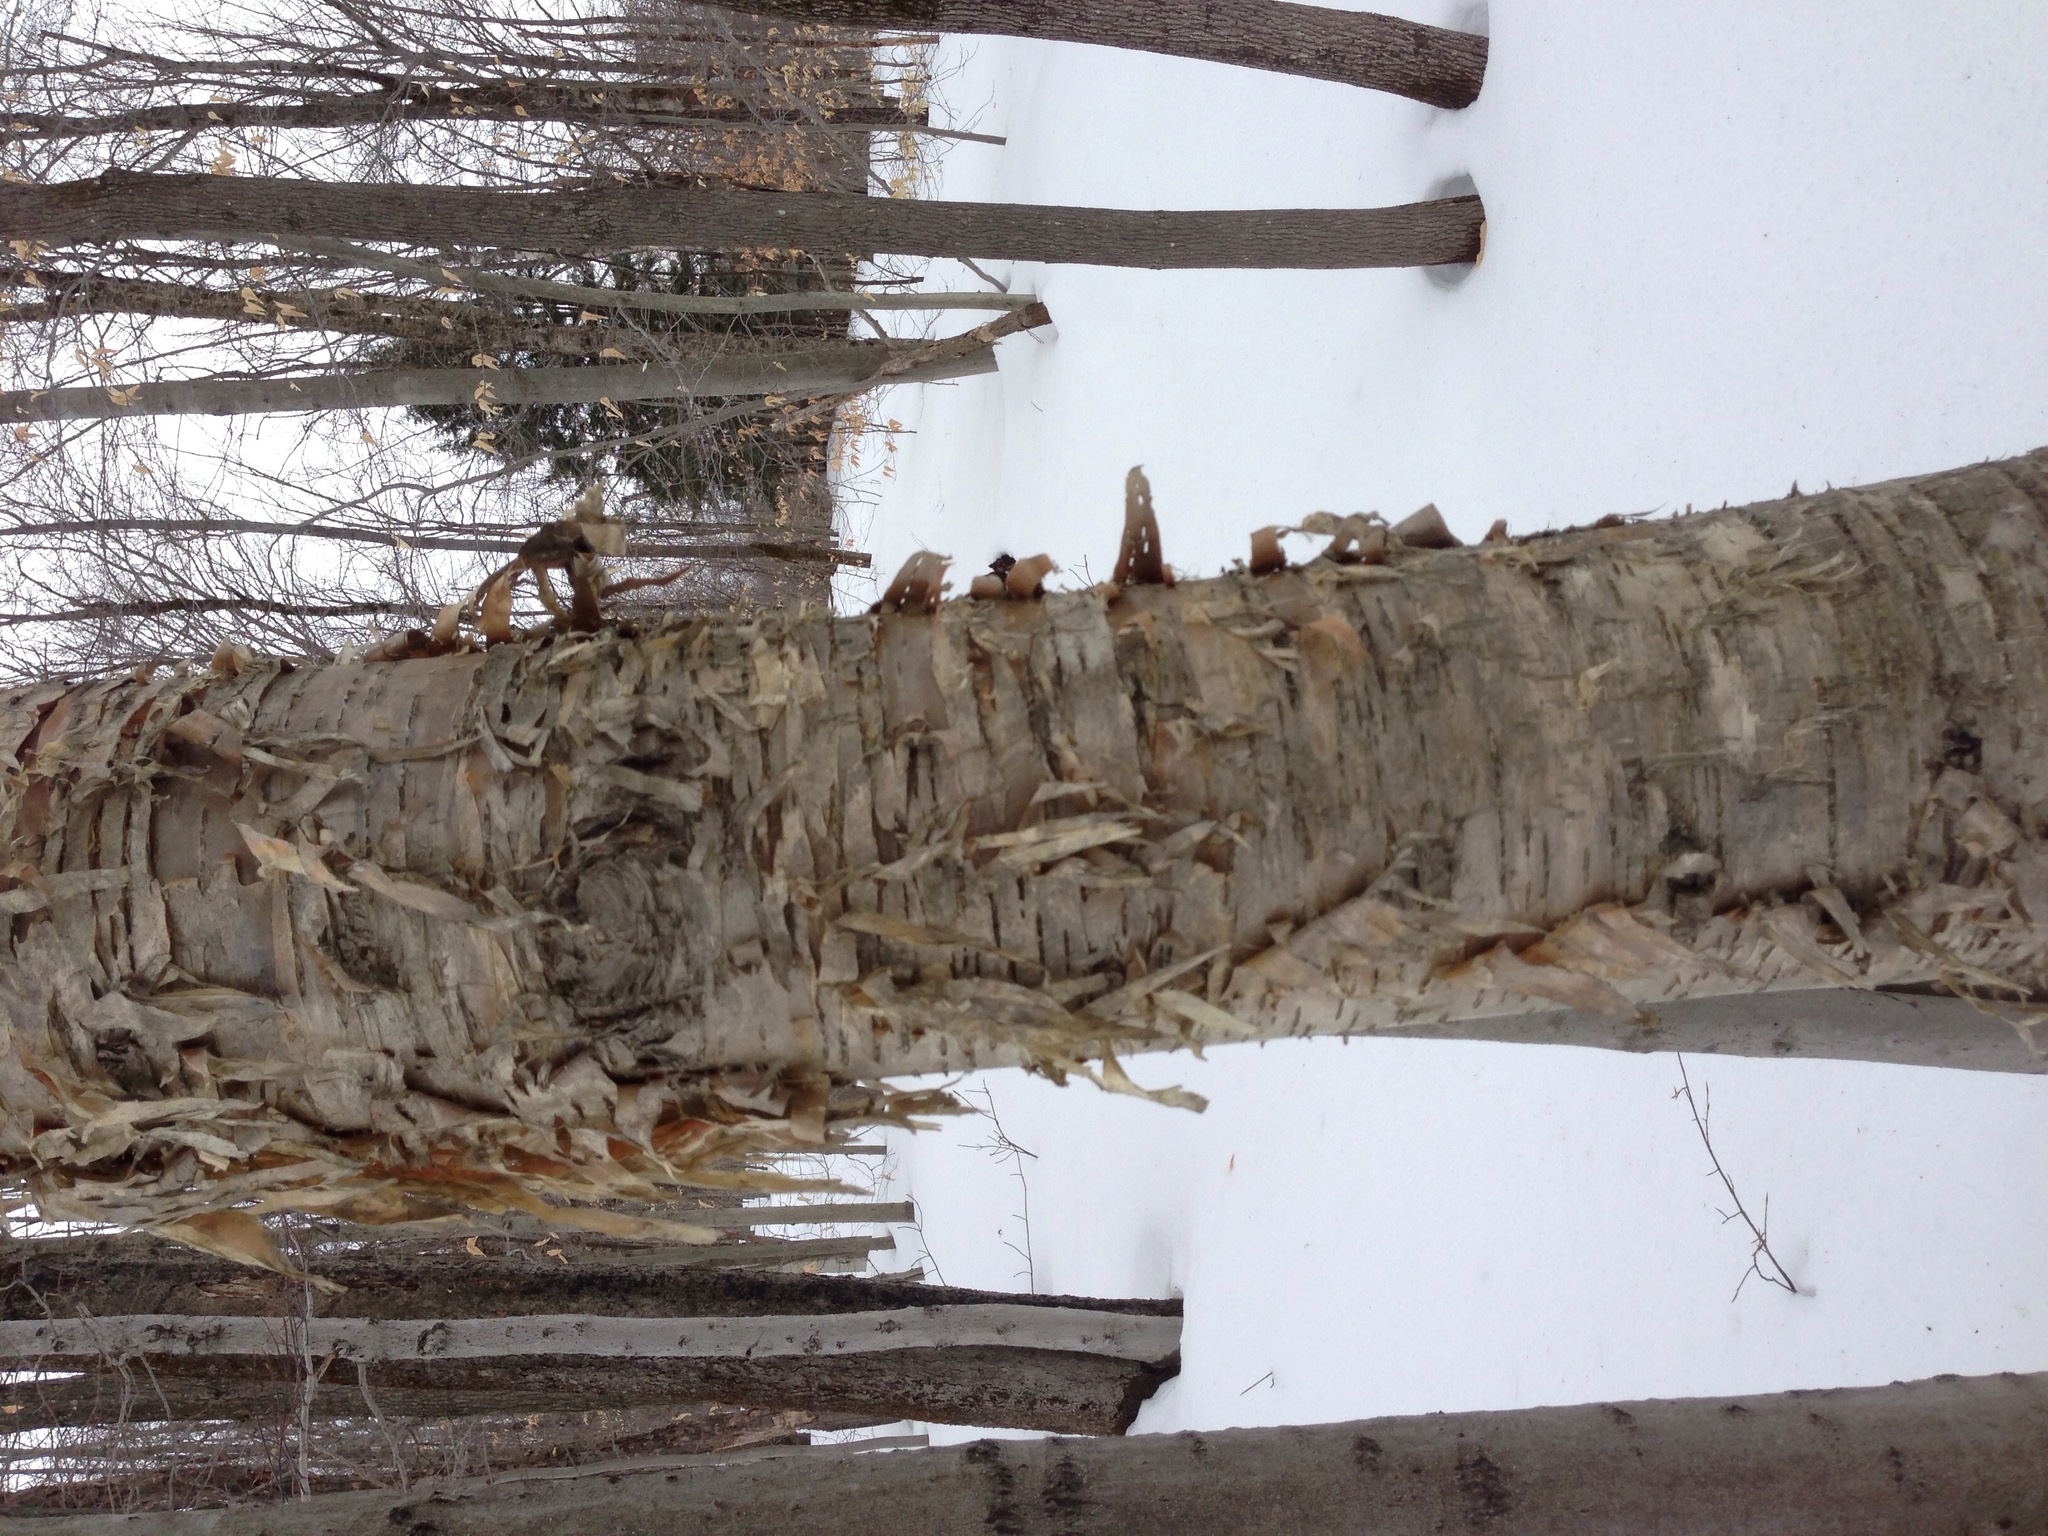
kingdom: Plantae
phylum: Tracheophyta
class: Magnoliopsida
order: Fagales
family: Betulaceae
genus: Betula
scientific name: Betula alleghaniensis
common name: Yellow birch
